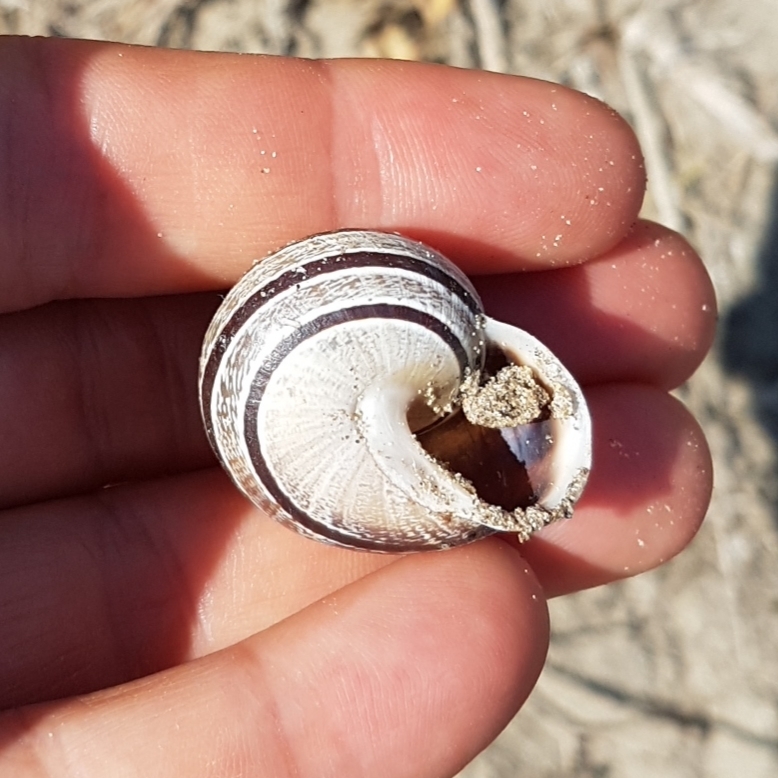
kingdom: Animalia
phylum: Mollusca
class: Gastropoda
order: Stylommatophora
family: Helicidae
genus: Eobania
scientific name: Eobania vermiculata
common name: Chocolateband snail
